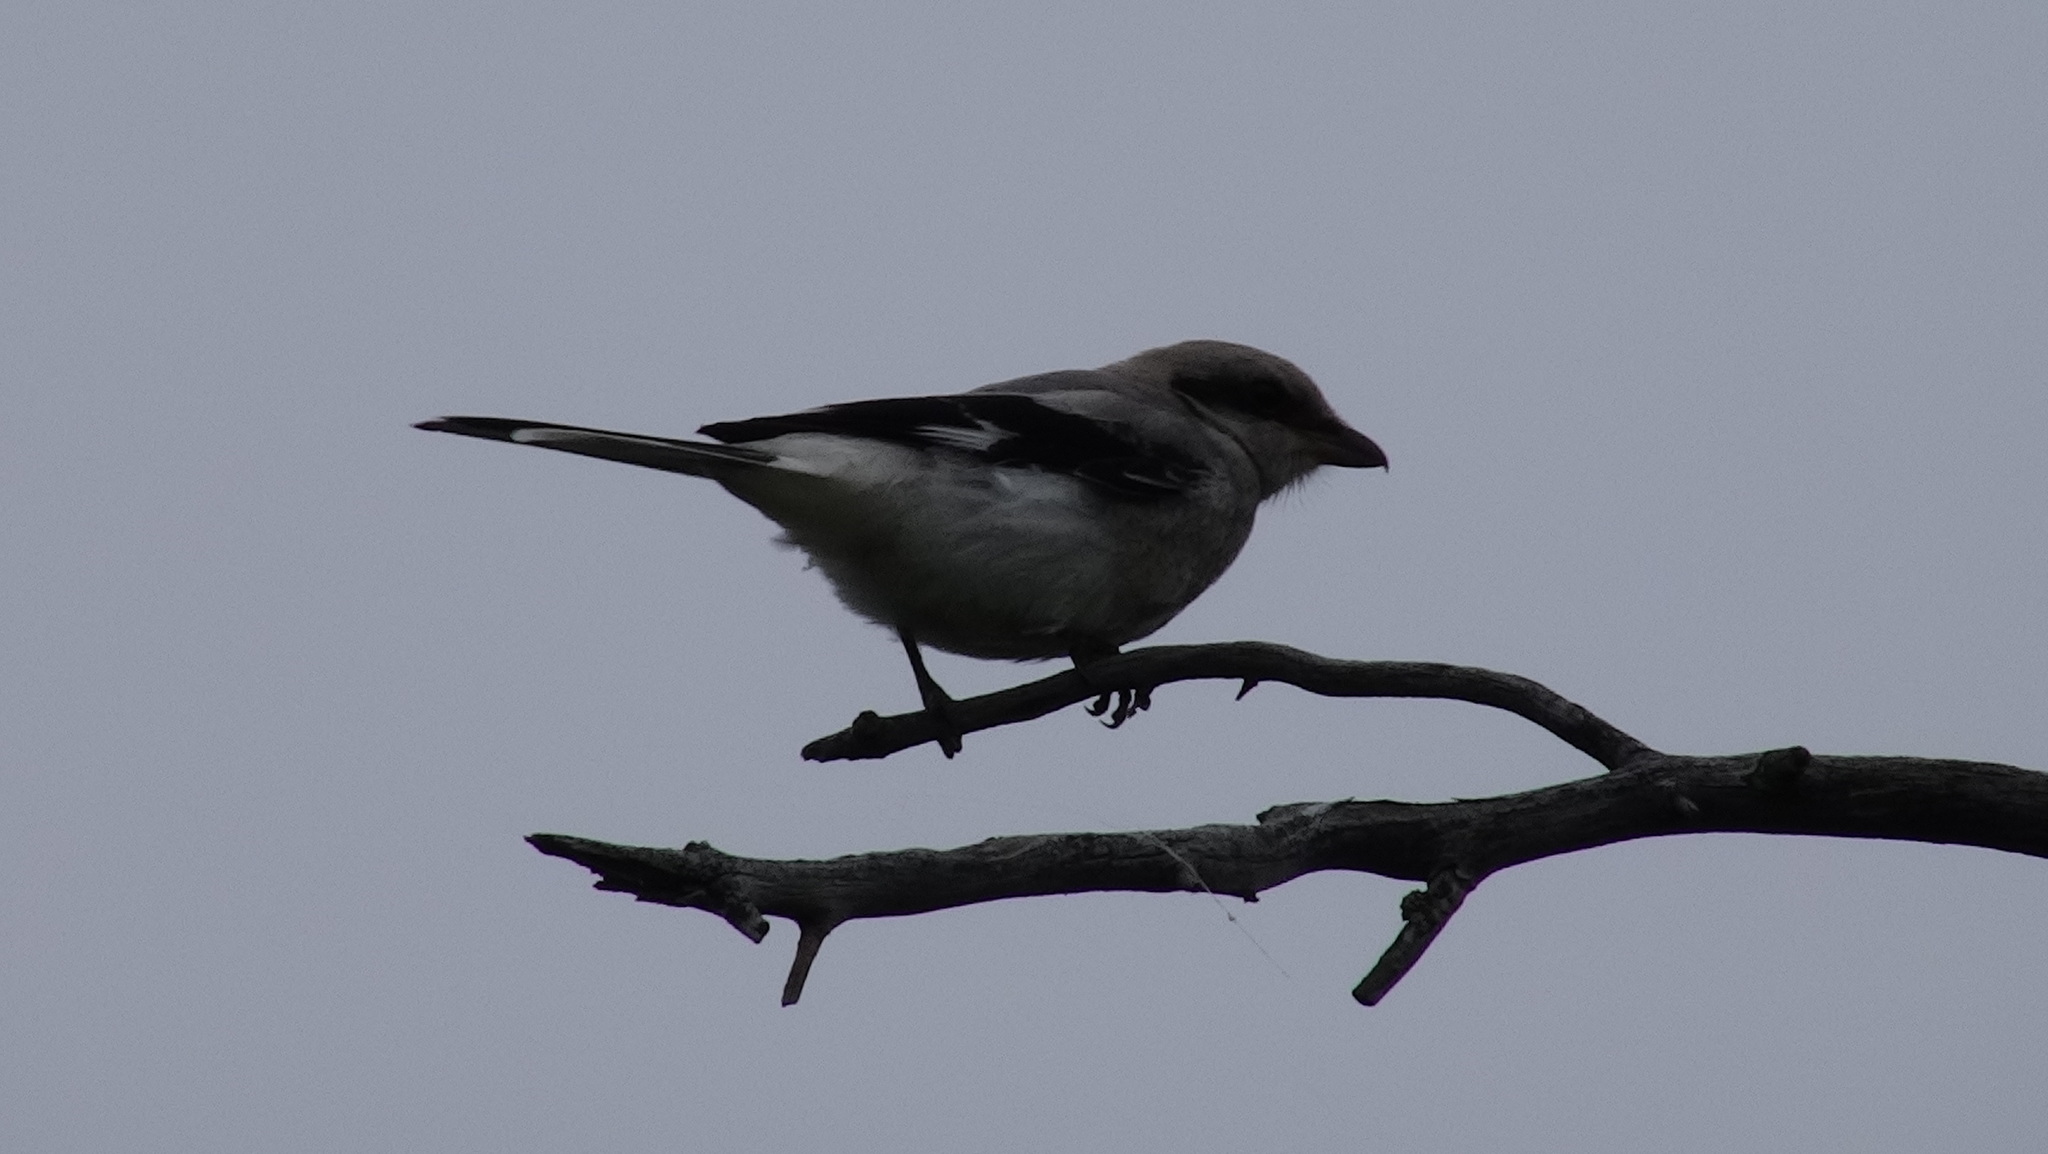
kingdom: Animalia
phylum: Chordata
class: Aves
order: Passeriformes
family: Laniidae
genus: Lanius
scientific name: Lanius excubitor
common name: Great grey shrike
